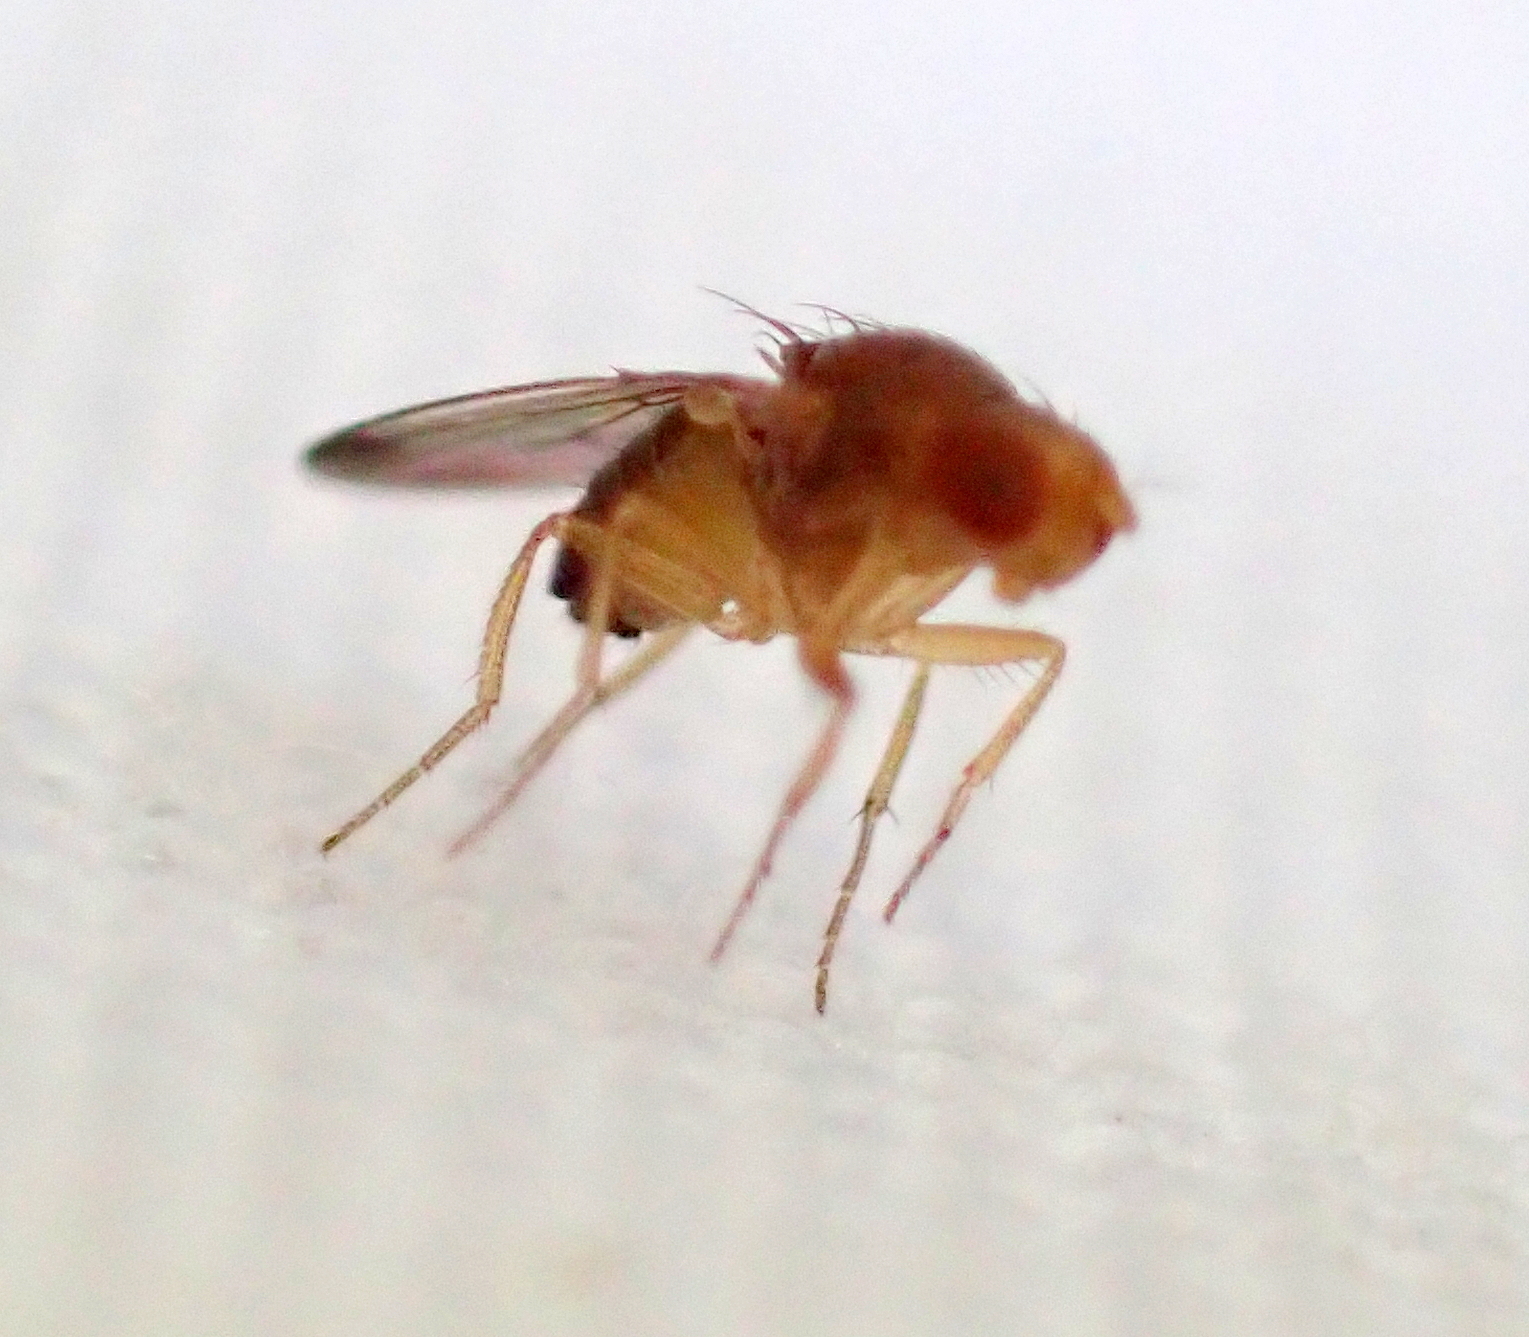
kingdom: Animalia
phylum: Arthropoda
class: Insecta
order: Diptera
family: Drosophilidae
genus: Drosophila
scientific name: Drosophila suzukii
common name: Spotted-wing drosophila
